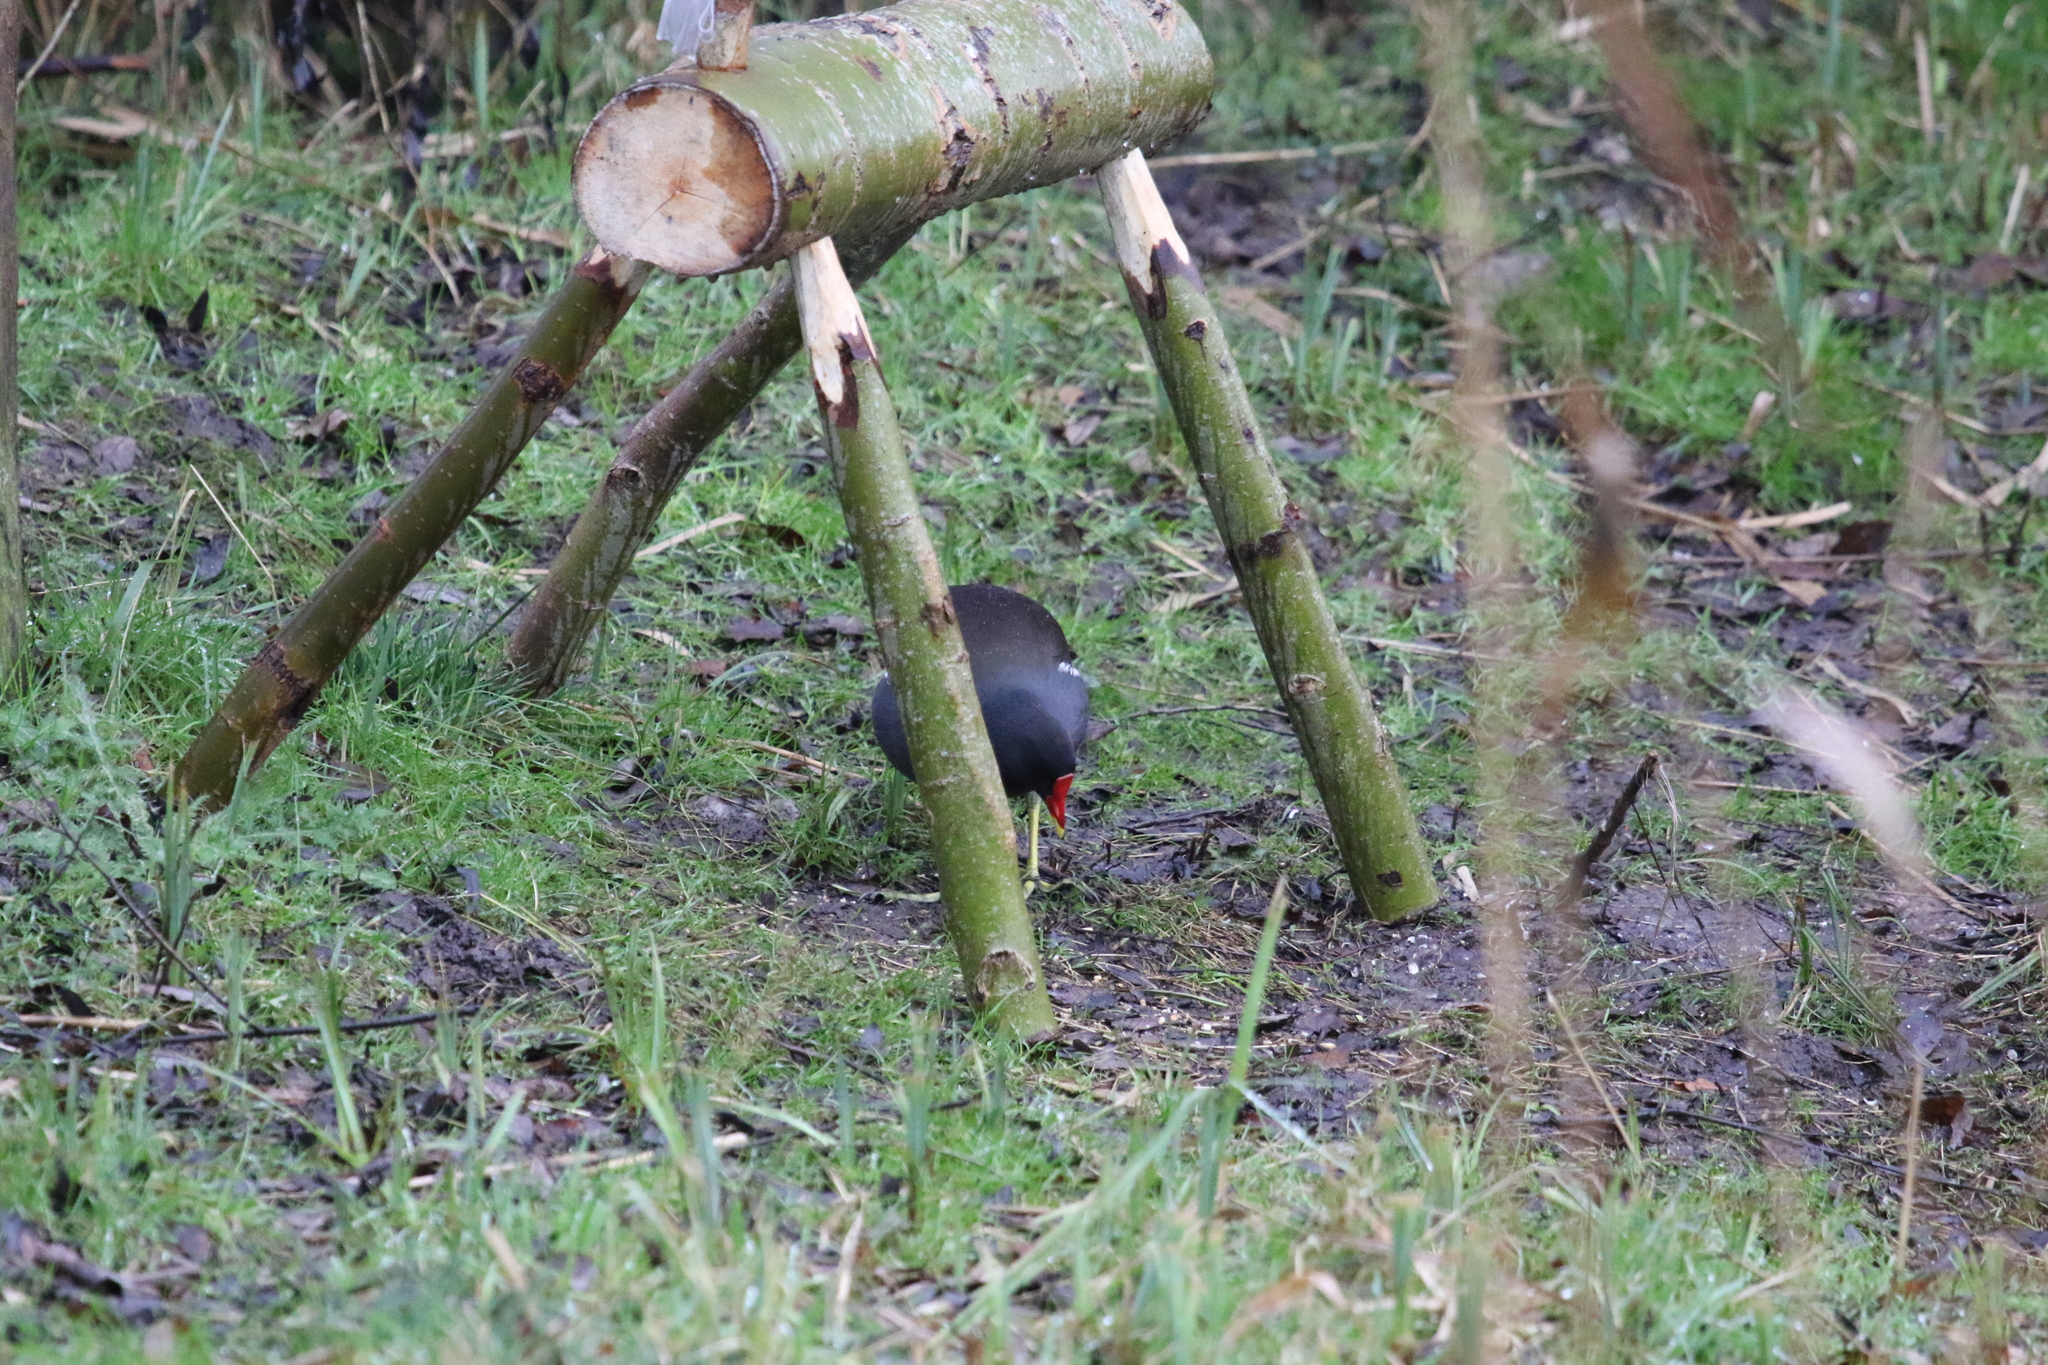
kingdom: Animalia
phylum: Chordata
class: Aves
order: Gruiformes
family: Rallidae
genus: Gallinula
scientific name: Gallinula chloropus
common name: Common moorhen
